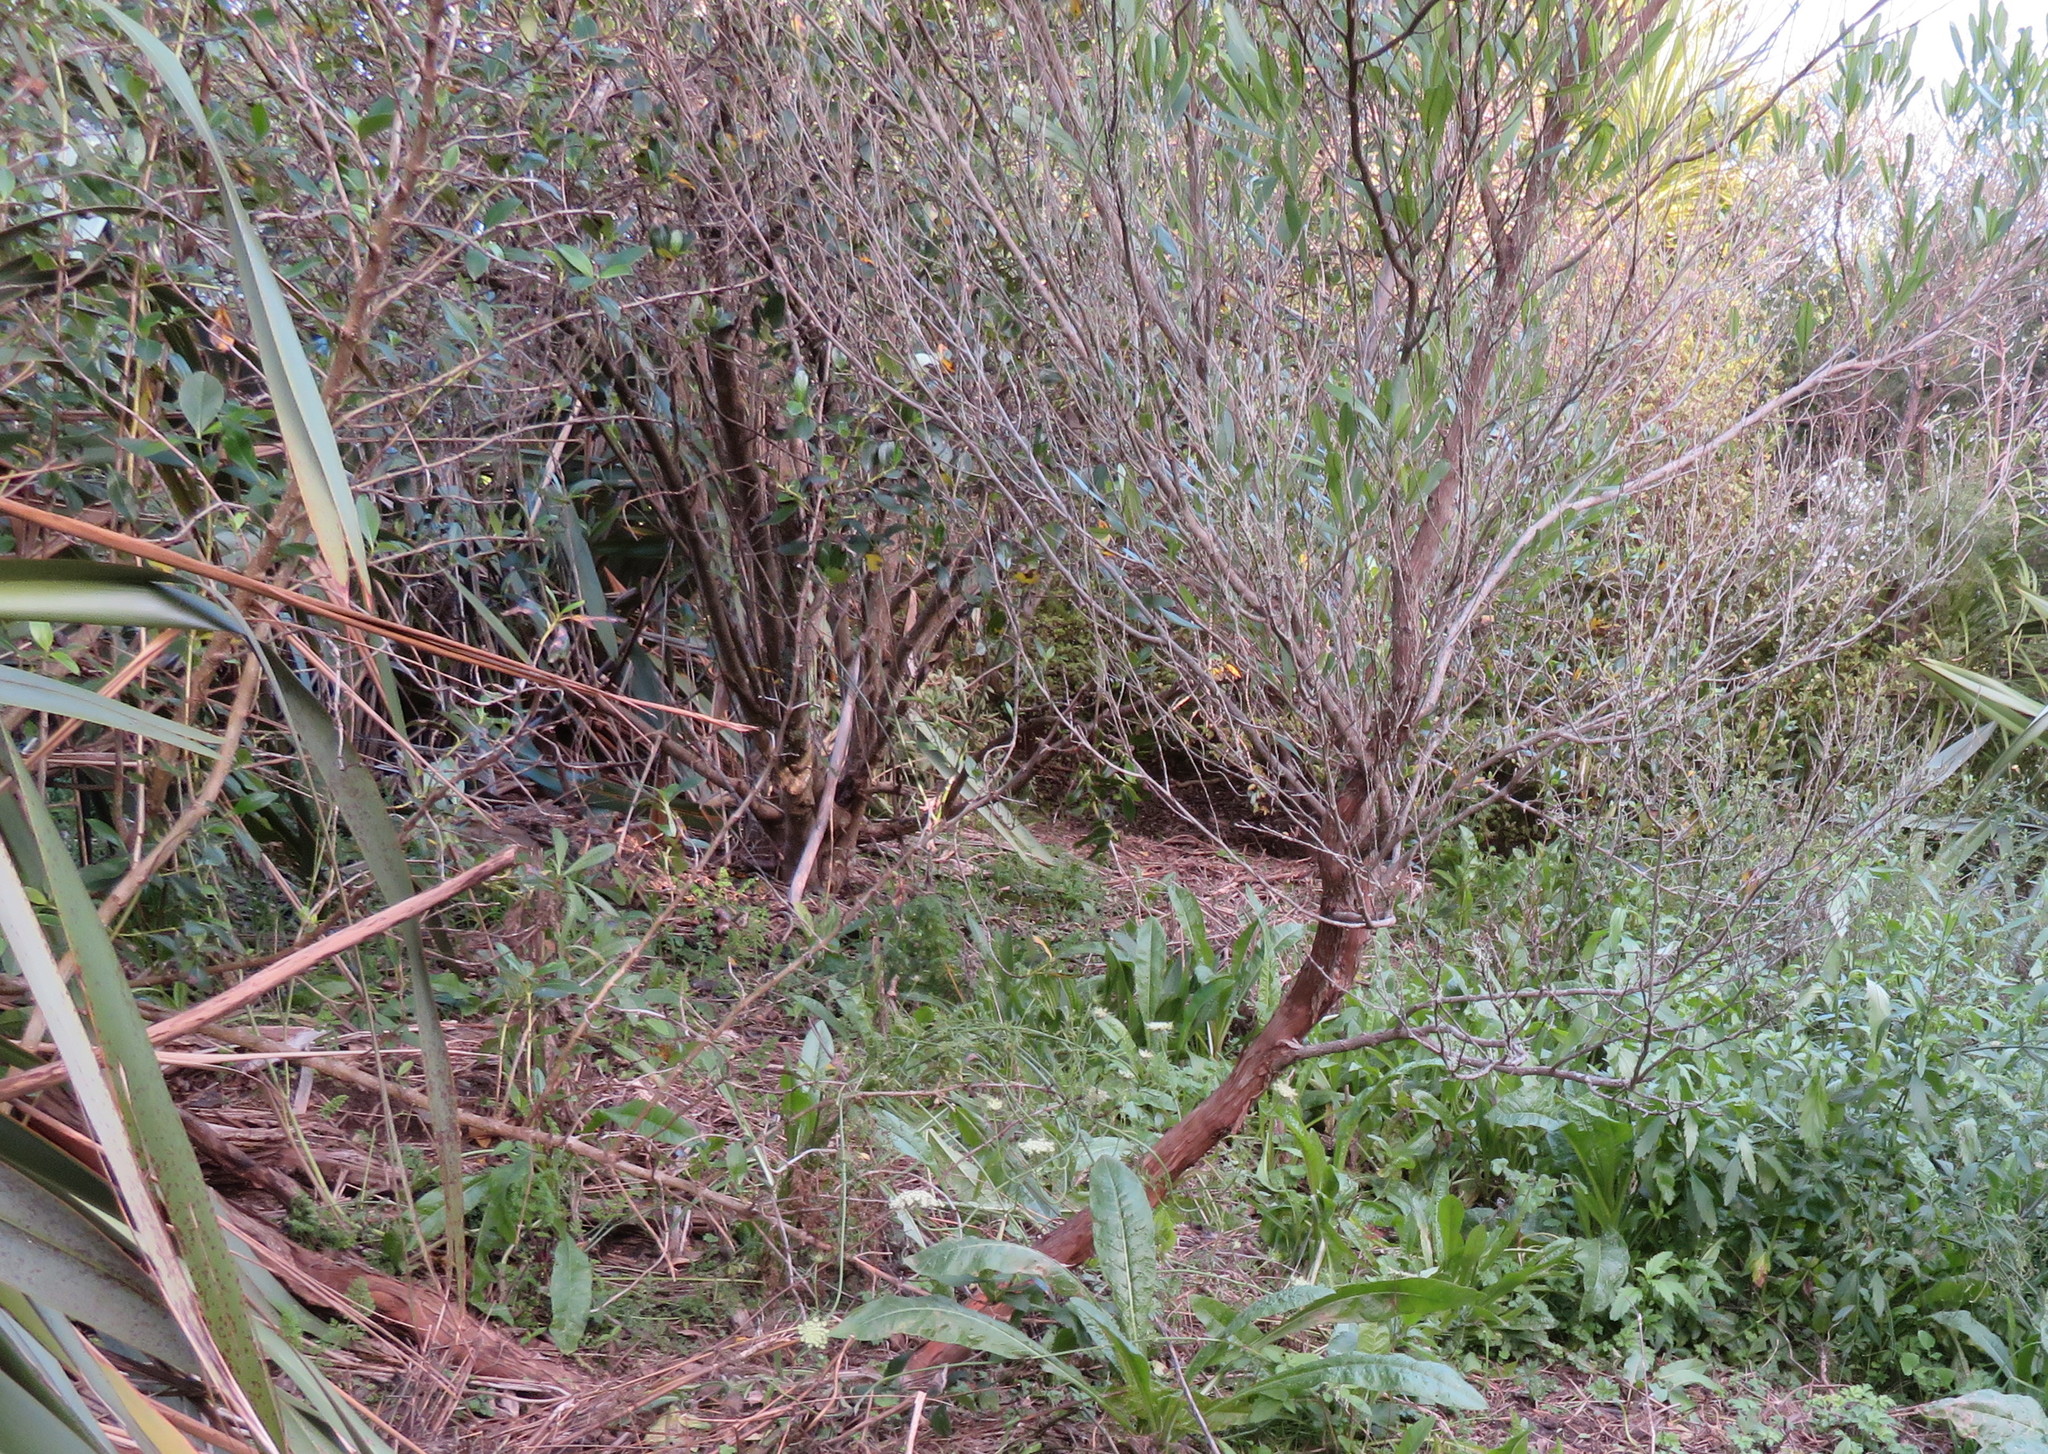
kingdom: Plantae
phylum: Tracheophyta
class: Magnoliopsida
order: Sapindales
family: Sapindaceae
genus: Dodonaea
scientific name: Dodonaea viscosa
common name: Hopbush
